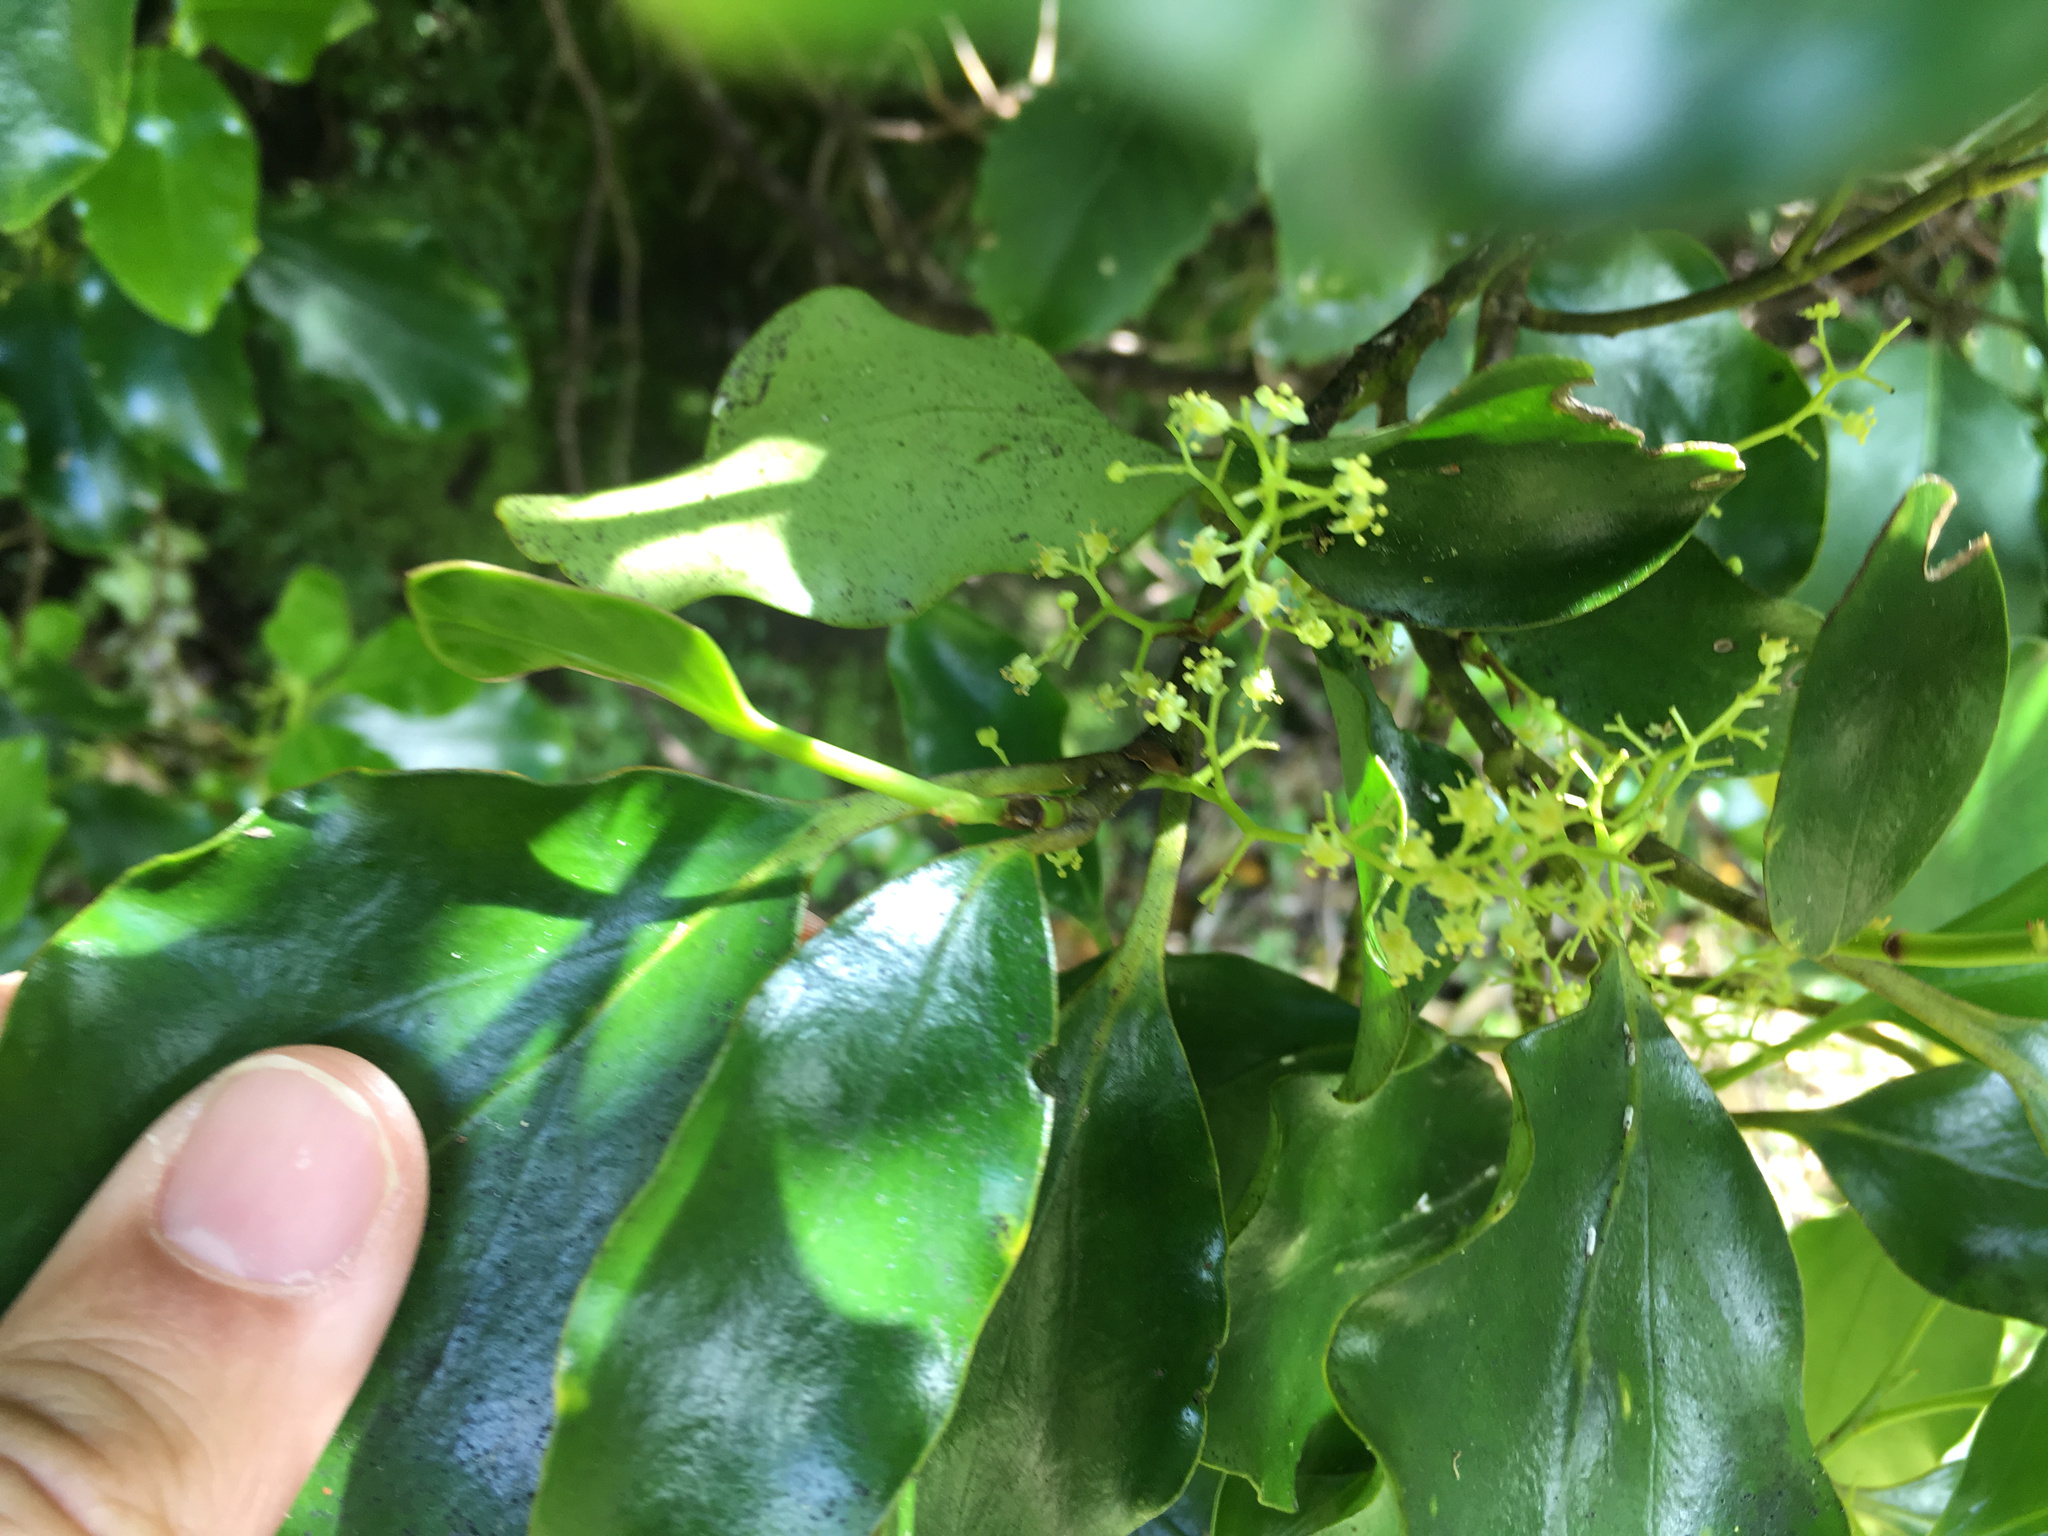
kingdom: Plantae
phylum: Tracheophyta
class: Magnoliopsida
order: Apiales
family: Griseliniaceae
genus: Griselinia
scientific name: Griselinia littoralis
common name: New zealand broadleaf
